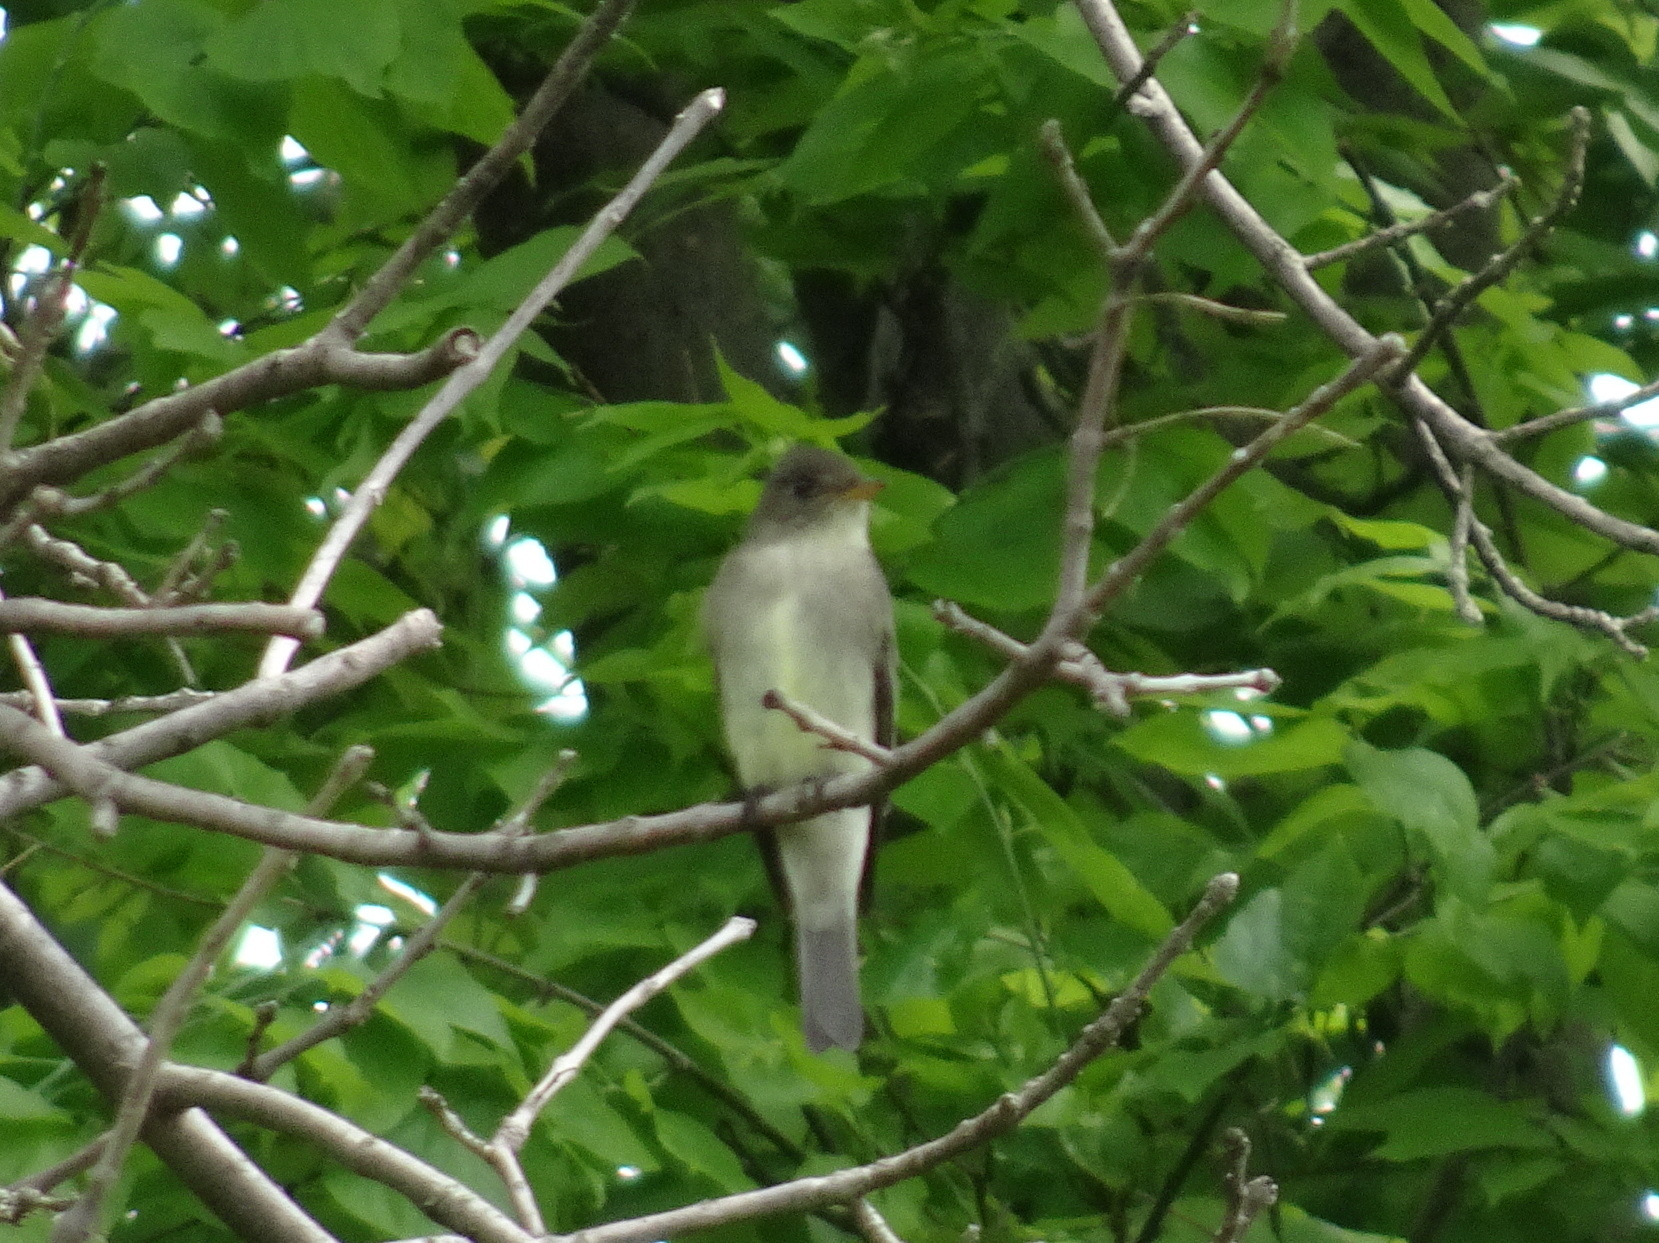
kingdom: Animalia
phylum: Chordata
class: Aves
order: Passeriformes
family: Tyrannidae
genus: Contopus
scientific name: Contopus virens
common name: Eastern wood-pewee
